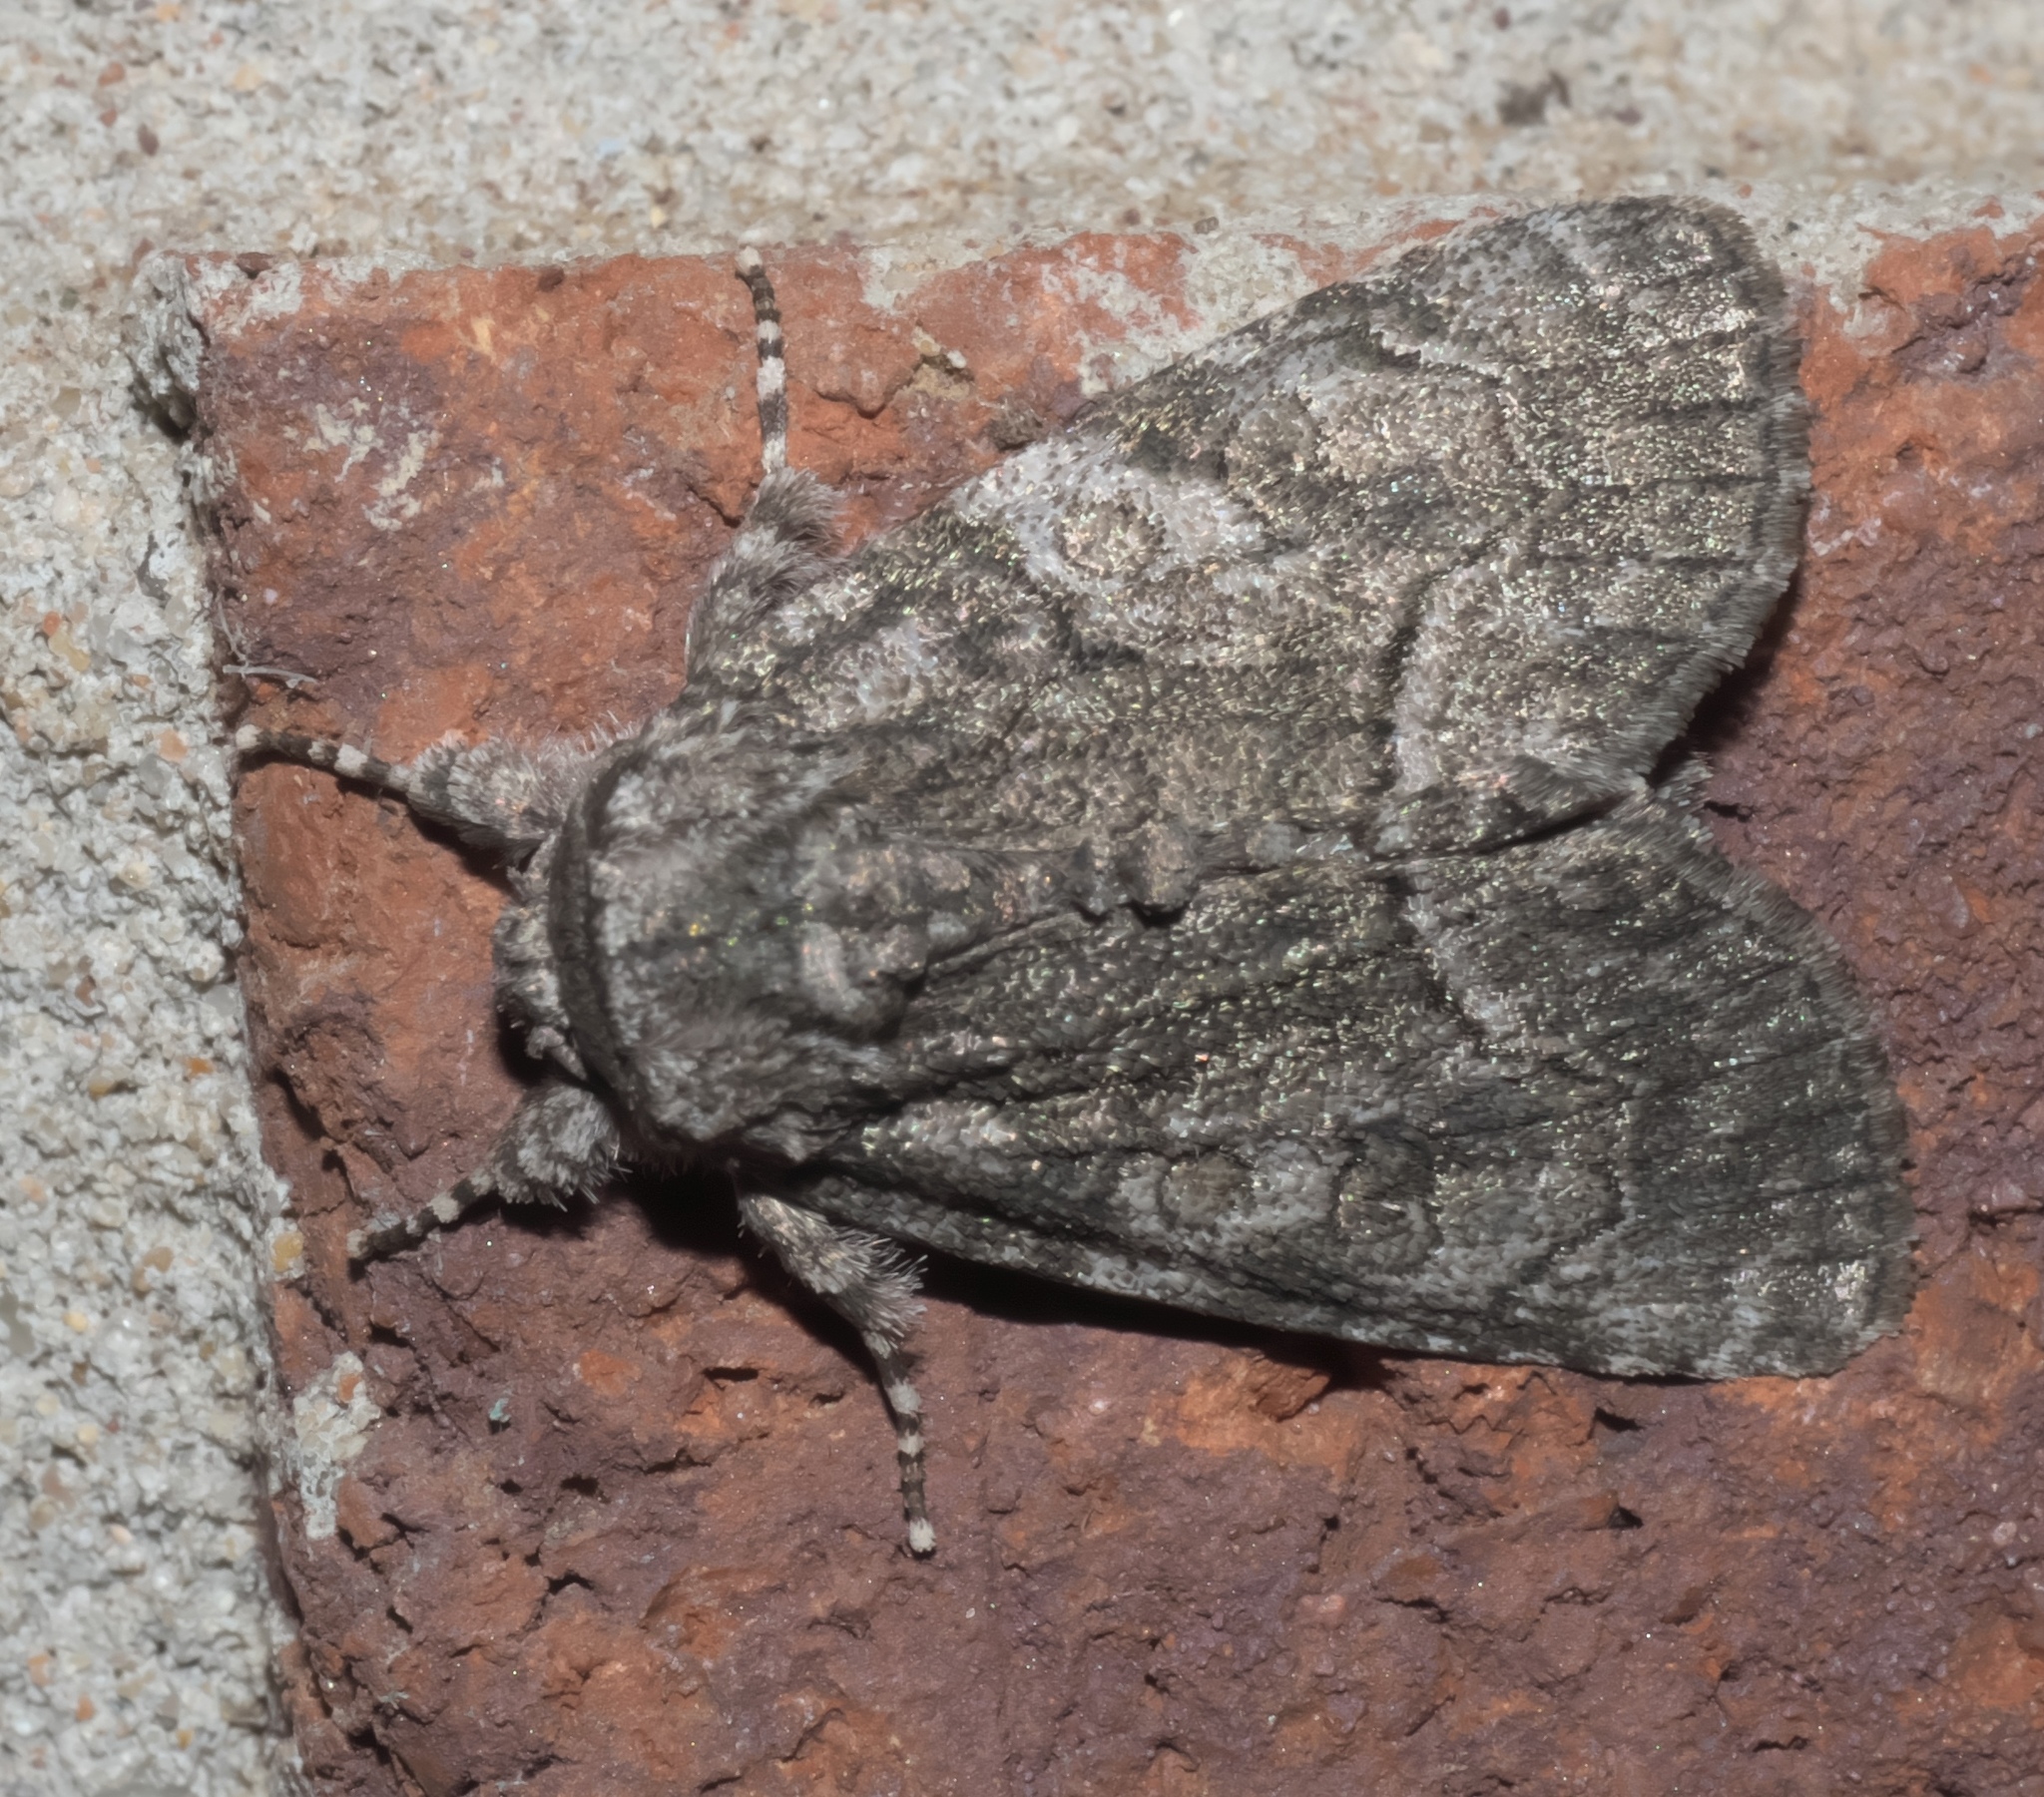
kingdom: Animalia
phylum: Arthropoda
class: Insecta
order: Lepidoptera
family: Noctuidae
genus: Raphia
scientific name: Raphia frater
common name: Brother
